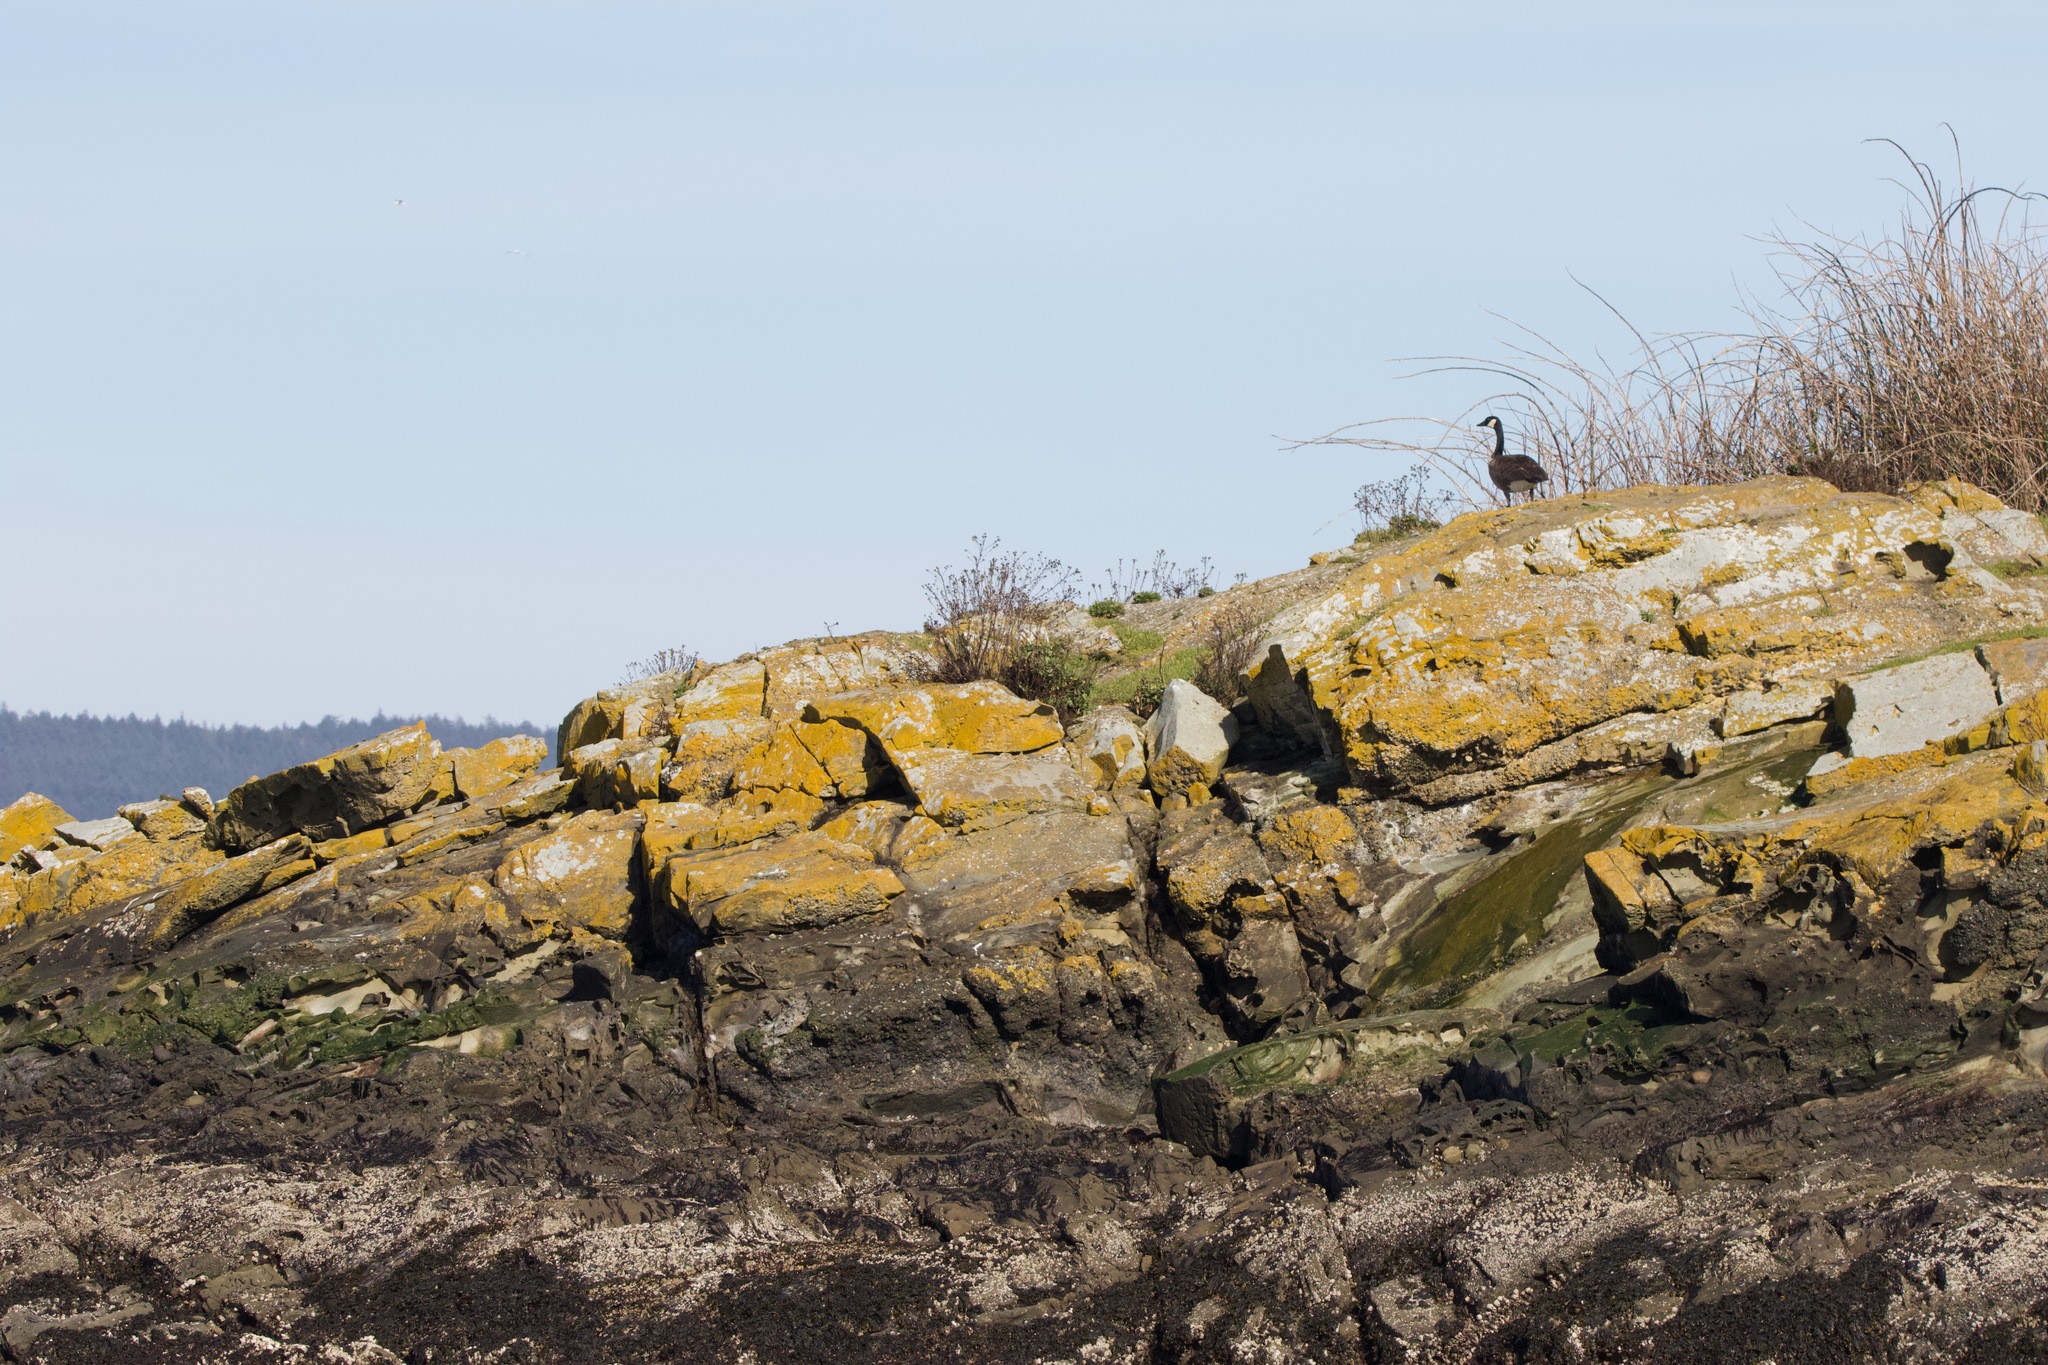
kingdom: Animalia
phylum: Chordata
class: Aves
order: Anseriformes
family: Anatidae
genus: Branta
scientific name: Branta canadensis
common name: Canada goose
